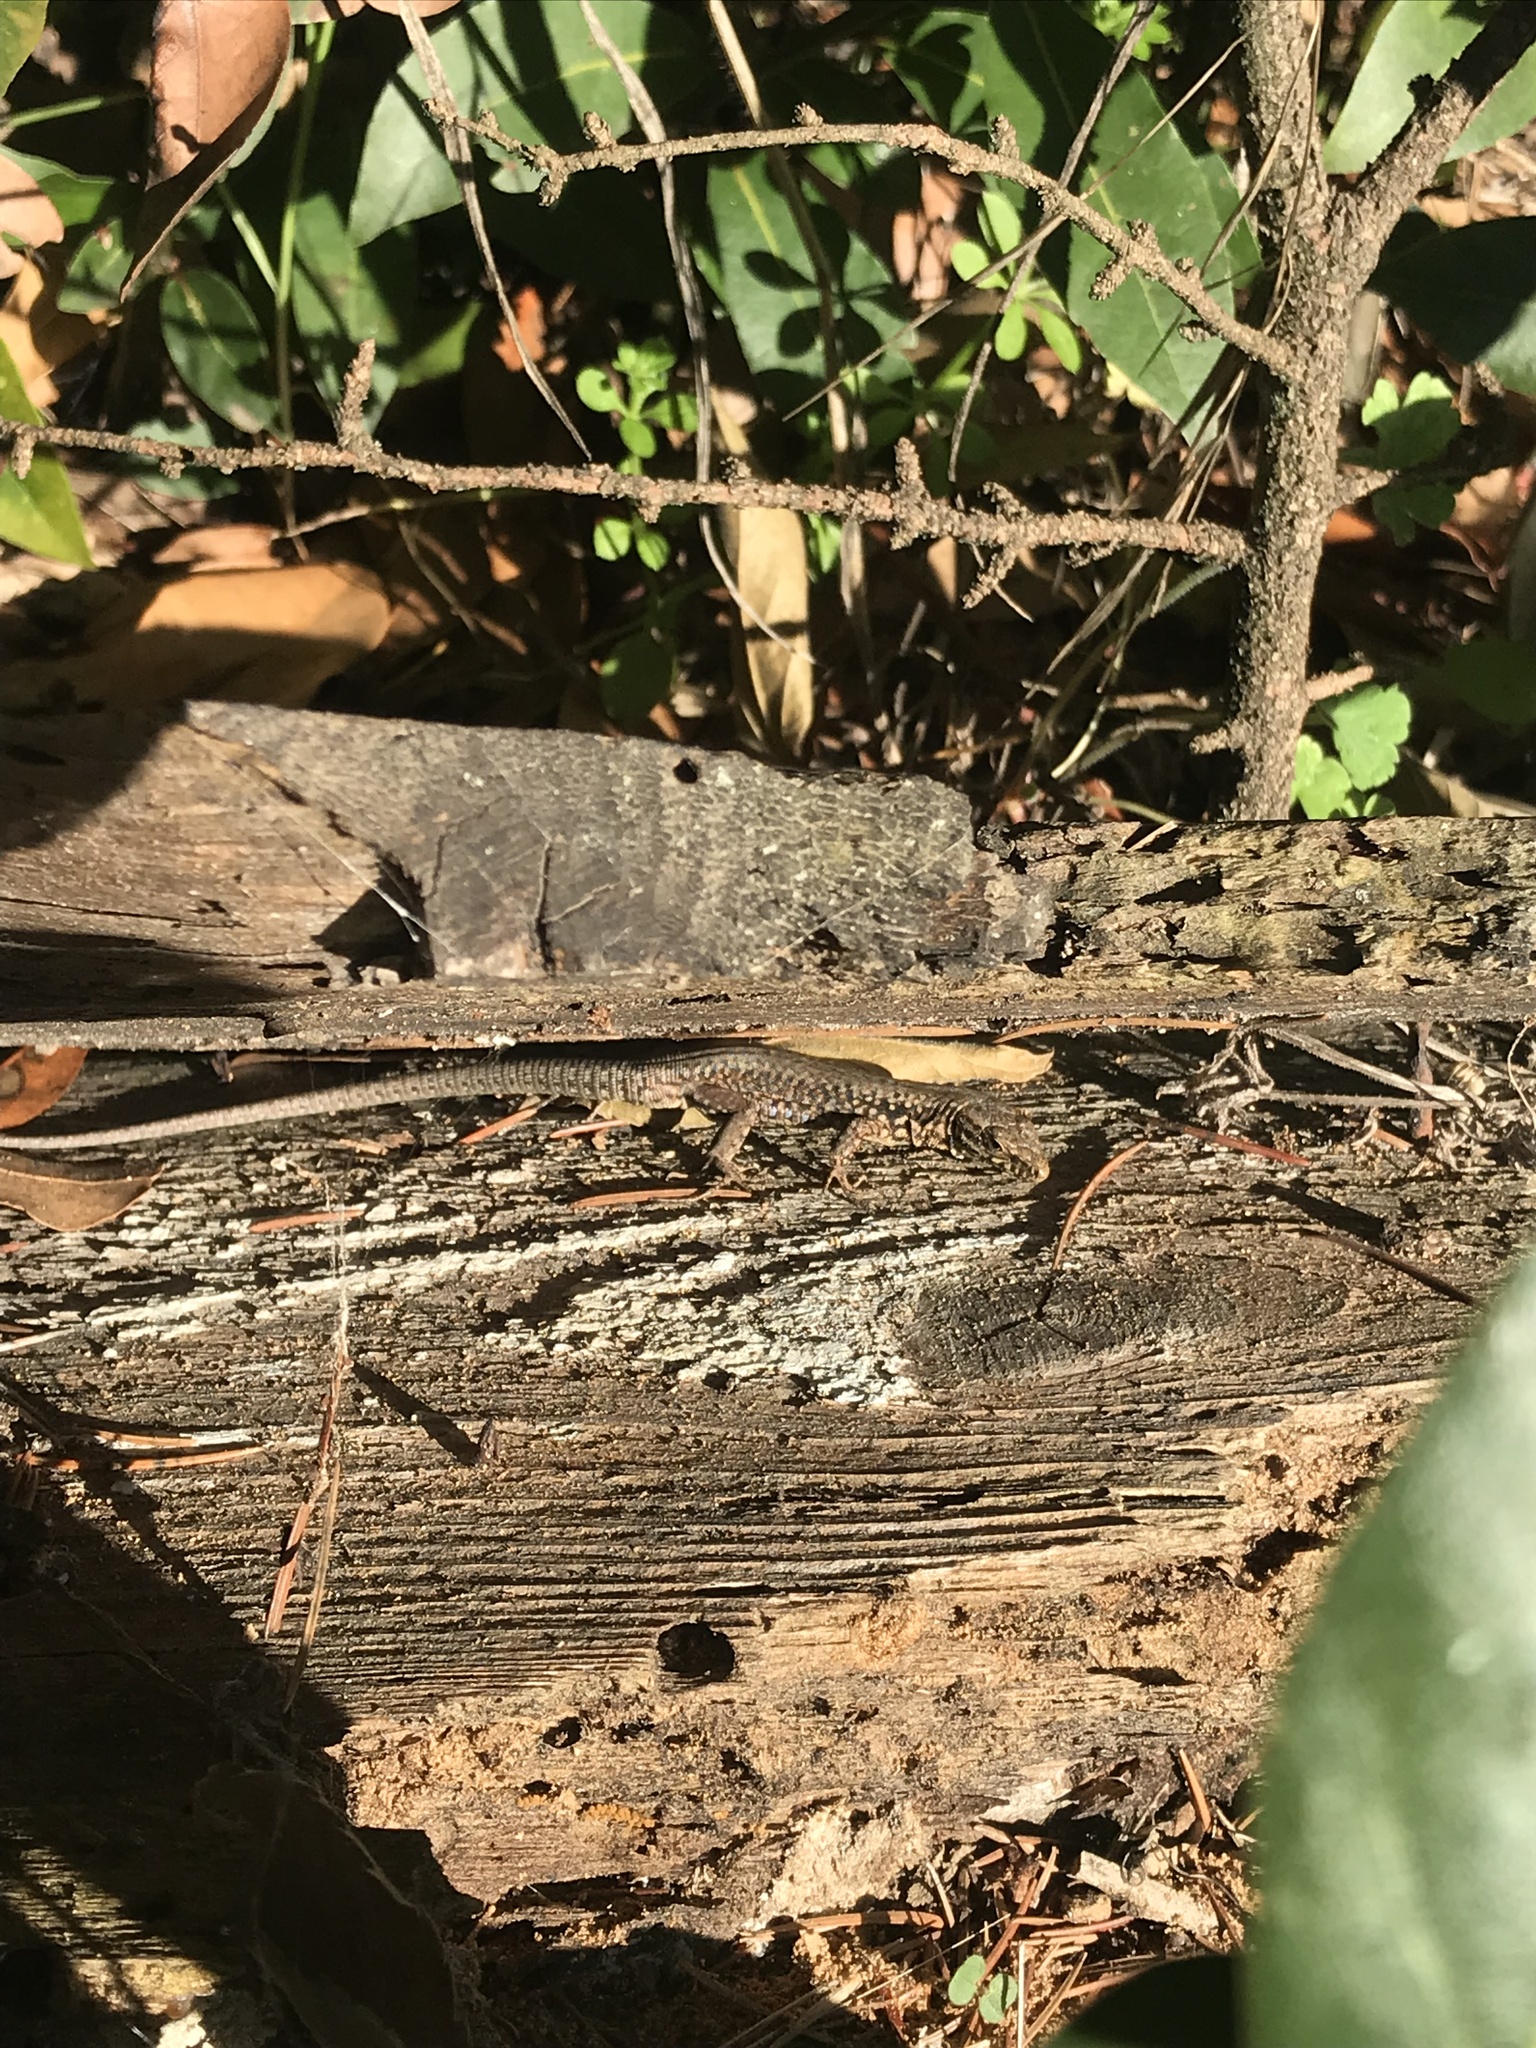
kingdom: Animalia
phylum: Chordata
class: Squamata
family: Lacertidae
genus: Podarcis
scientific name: Podarcis muralis
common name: Common wall lizard
